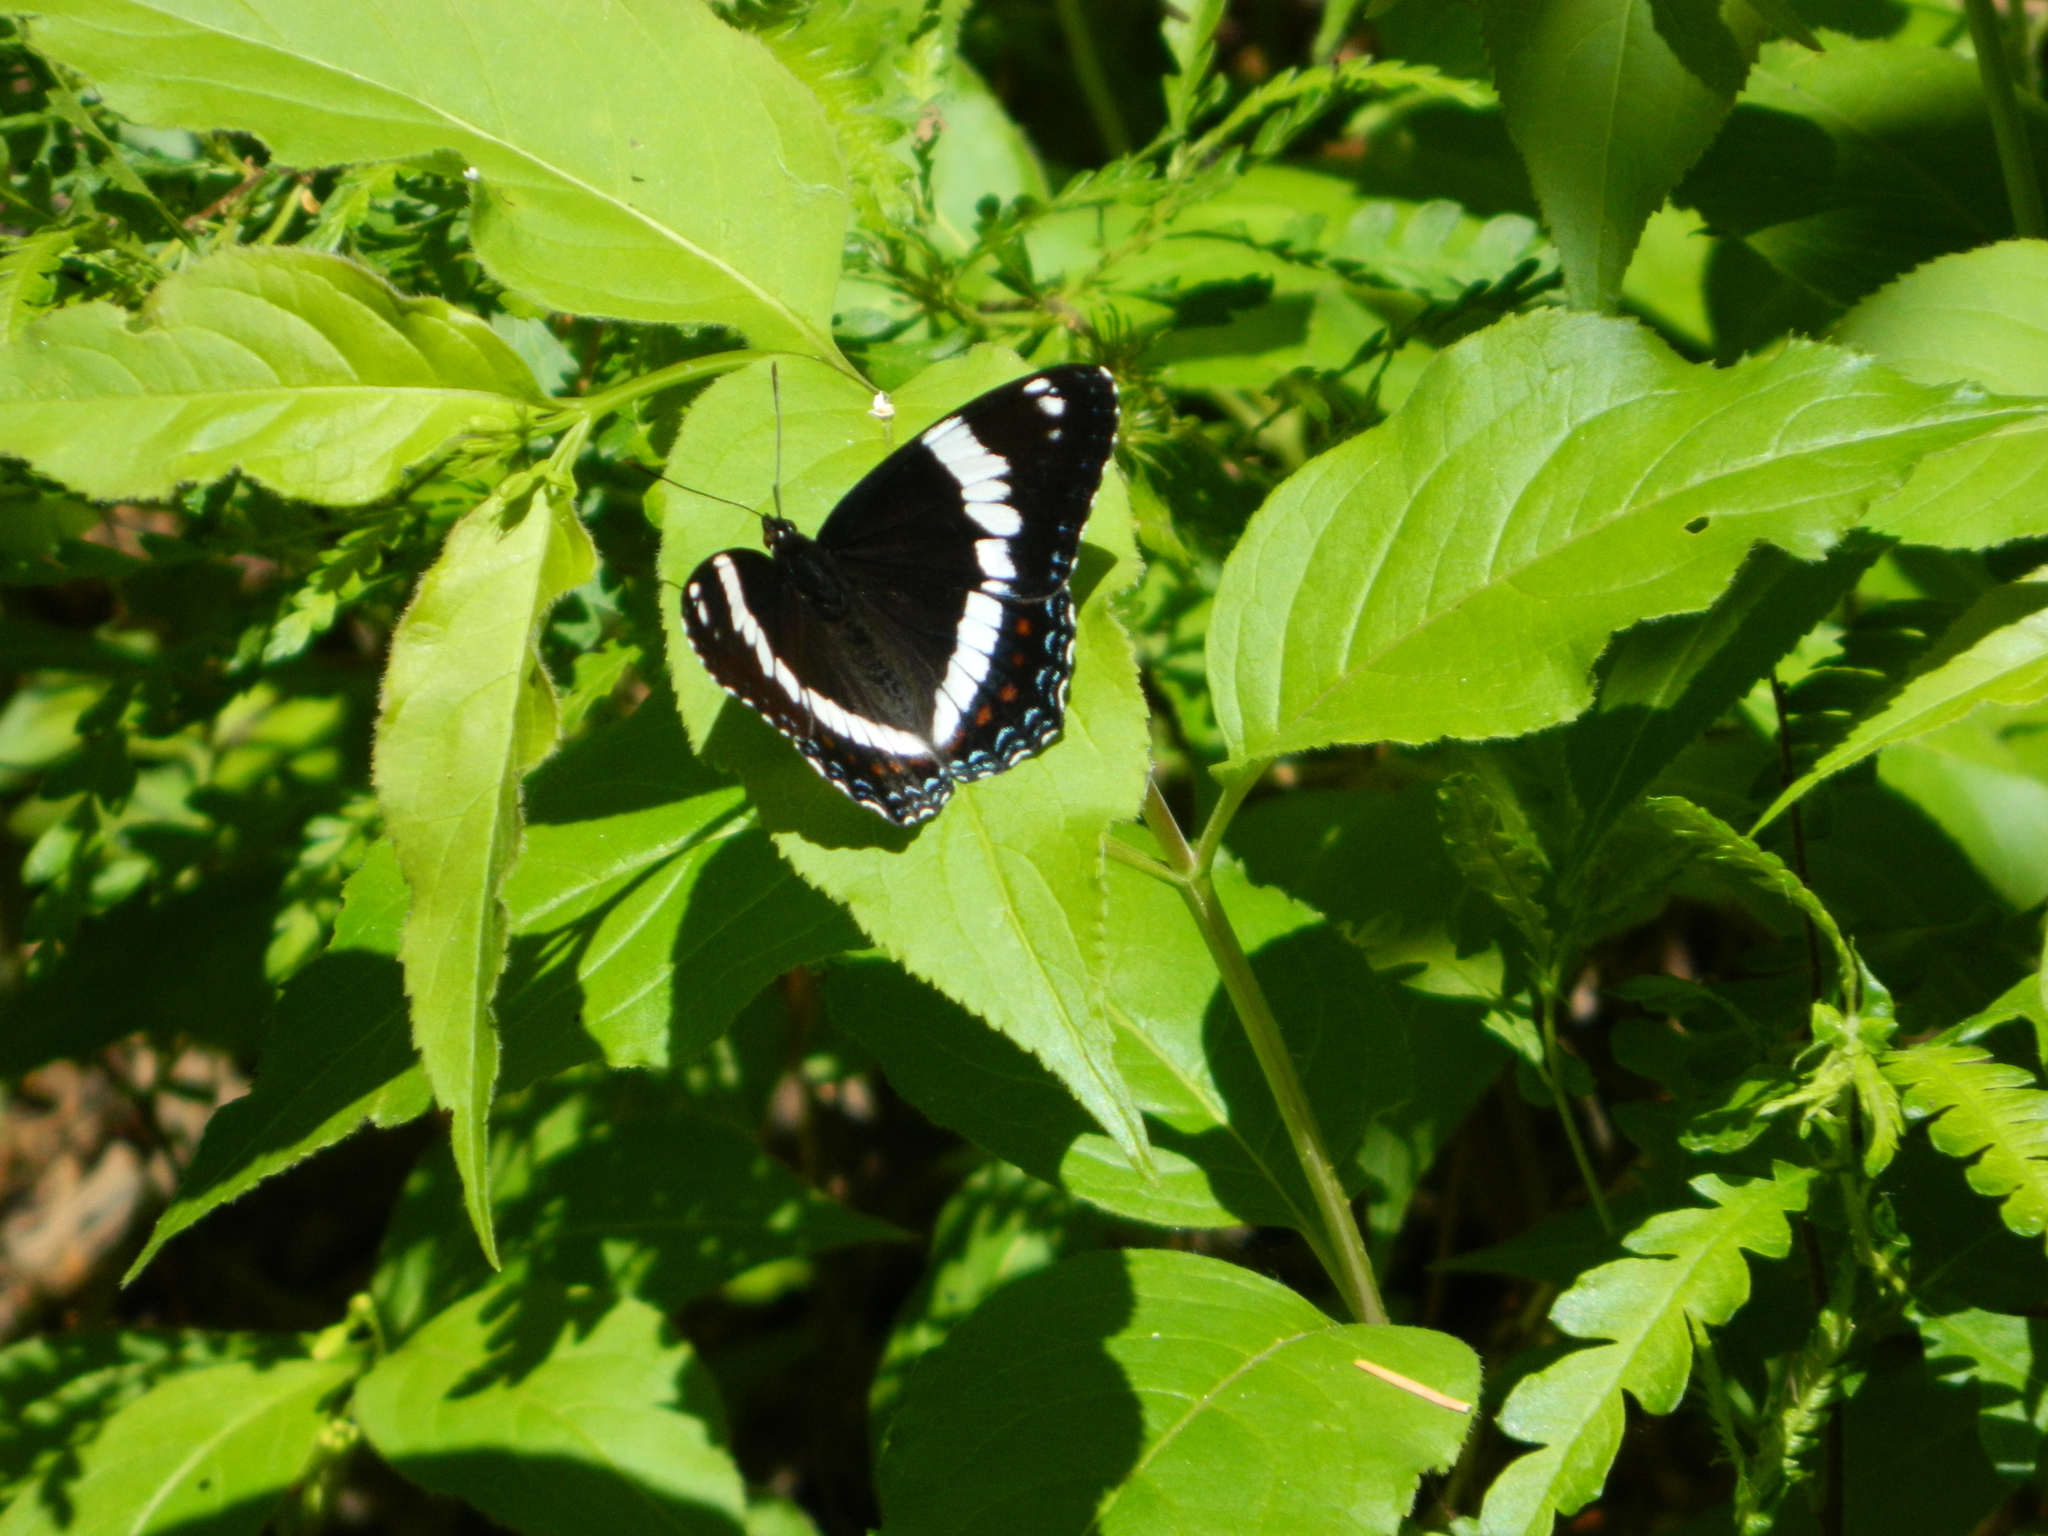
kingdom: Animalia
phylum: Arthropoda
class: Insecta
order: Lepidoptera
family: Nymphalidae
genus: Limenitis
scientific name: Limenitis arthemis
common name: Red-spotted admiral
